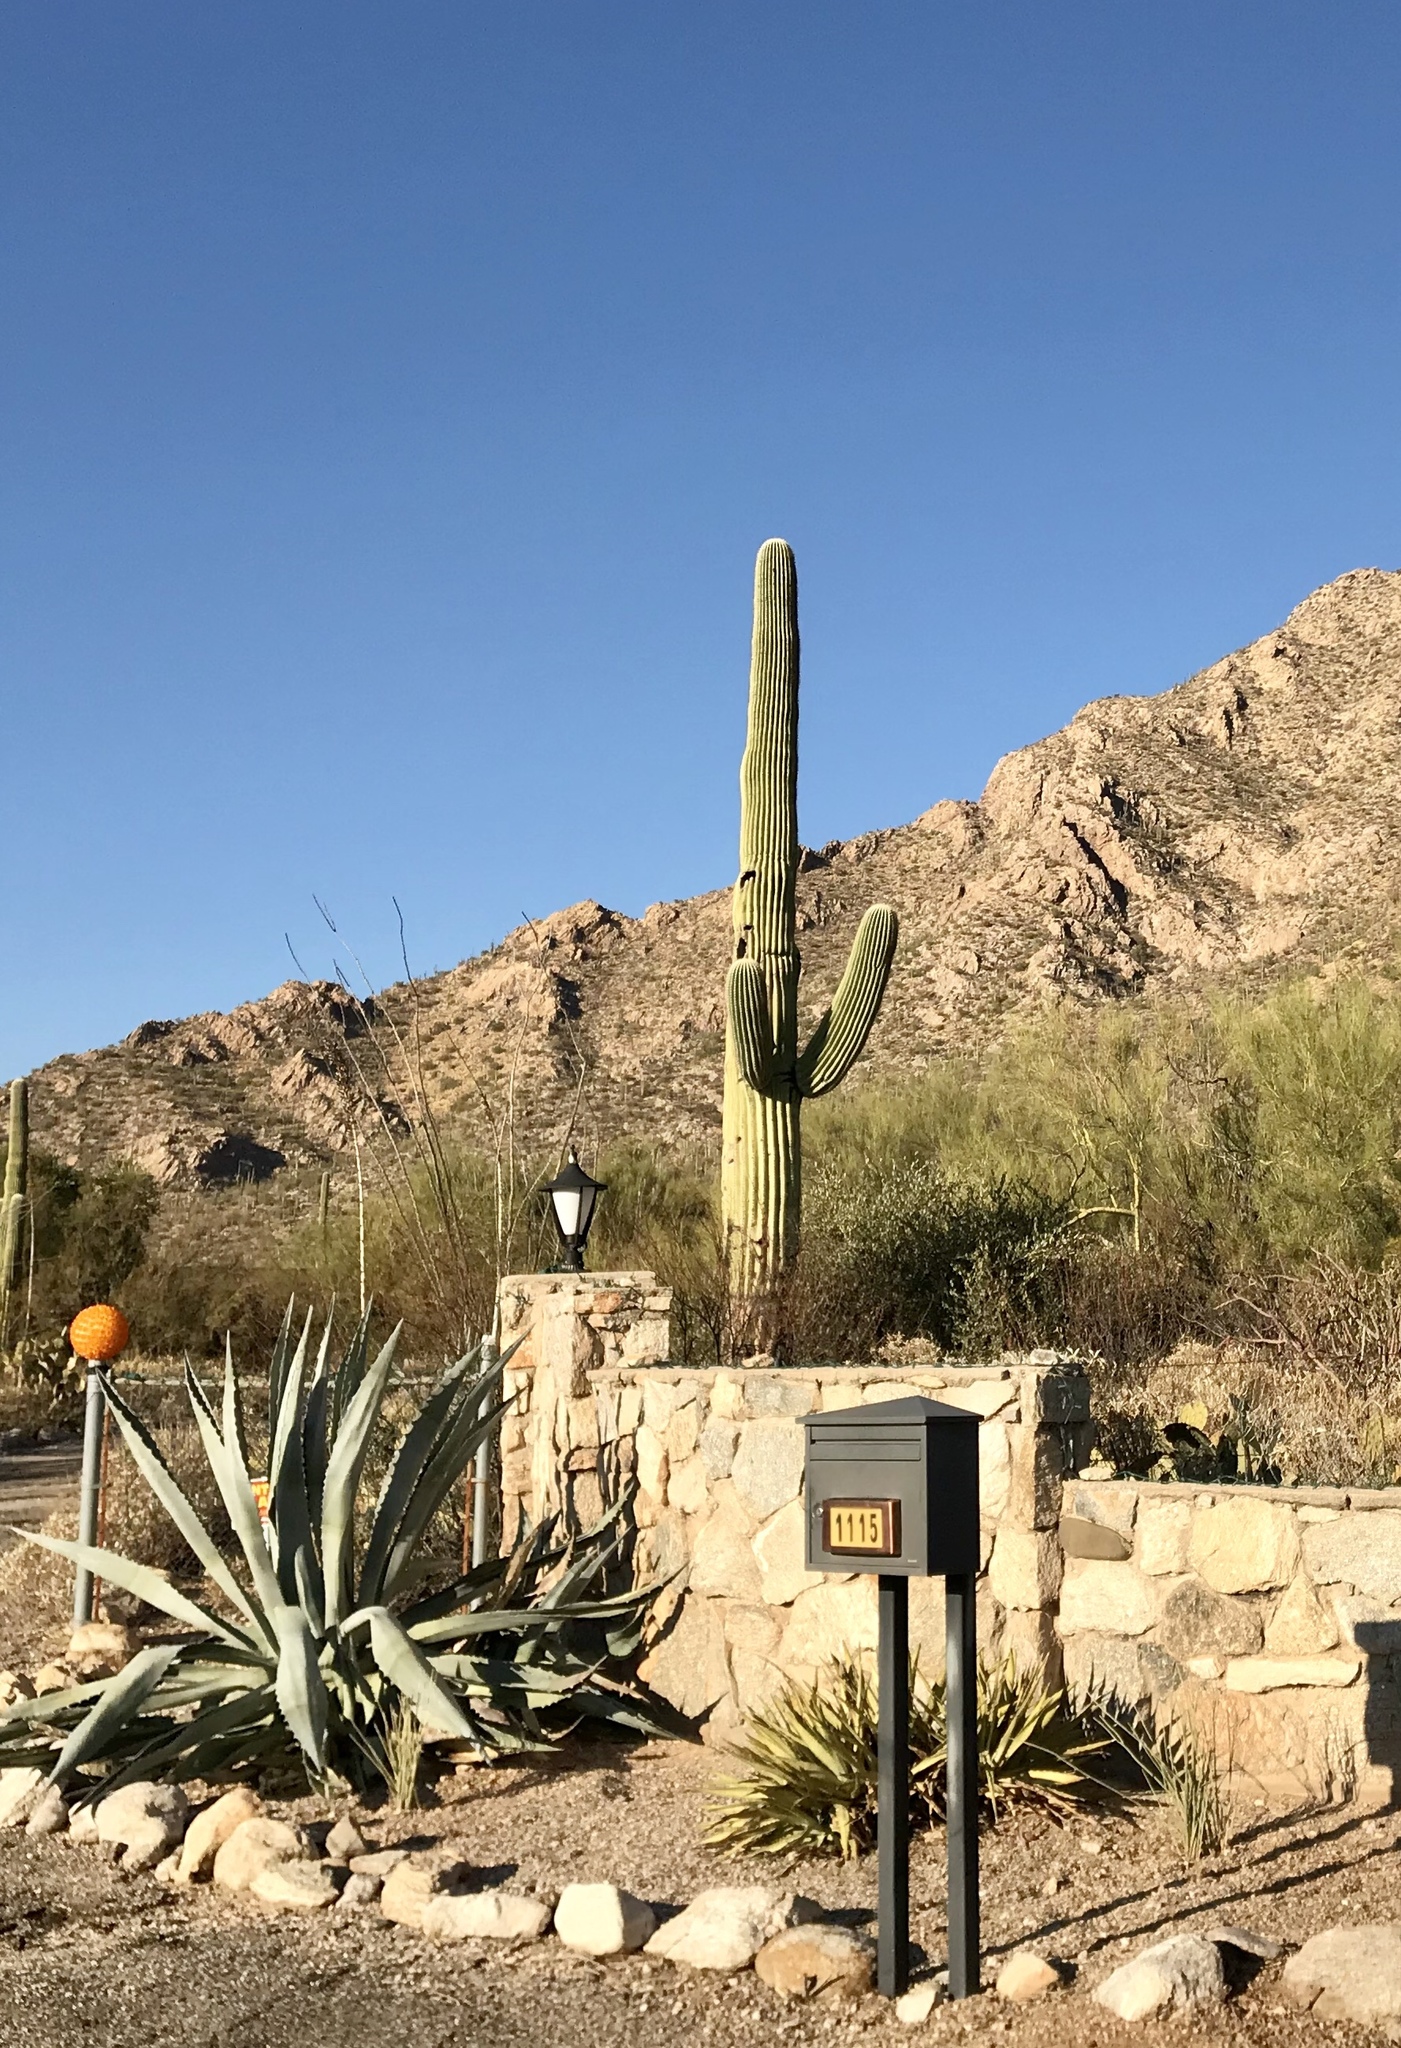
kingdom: Plantae
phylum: Tracheophyta
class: Magnoliopsida
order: Caryophyllales
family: Cactaceae
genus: Carnegiea
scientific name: Carnegiea gigantea
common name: Saguaro
